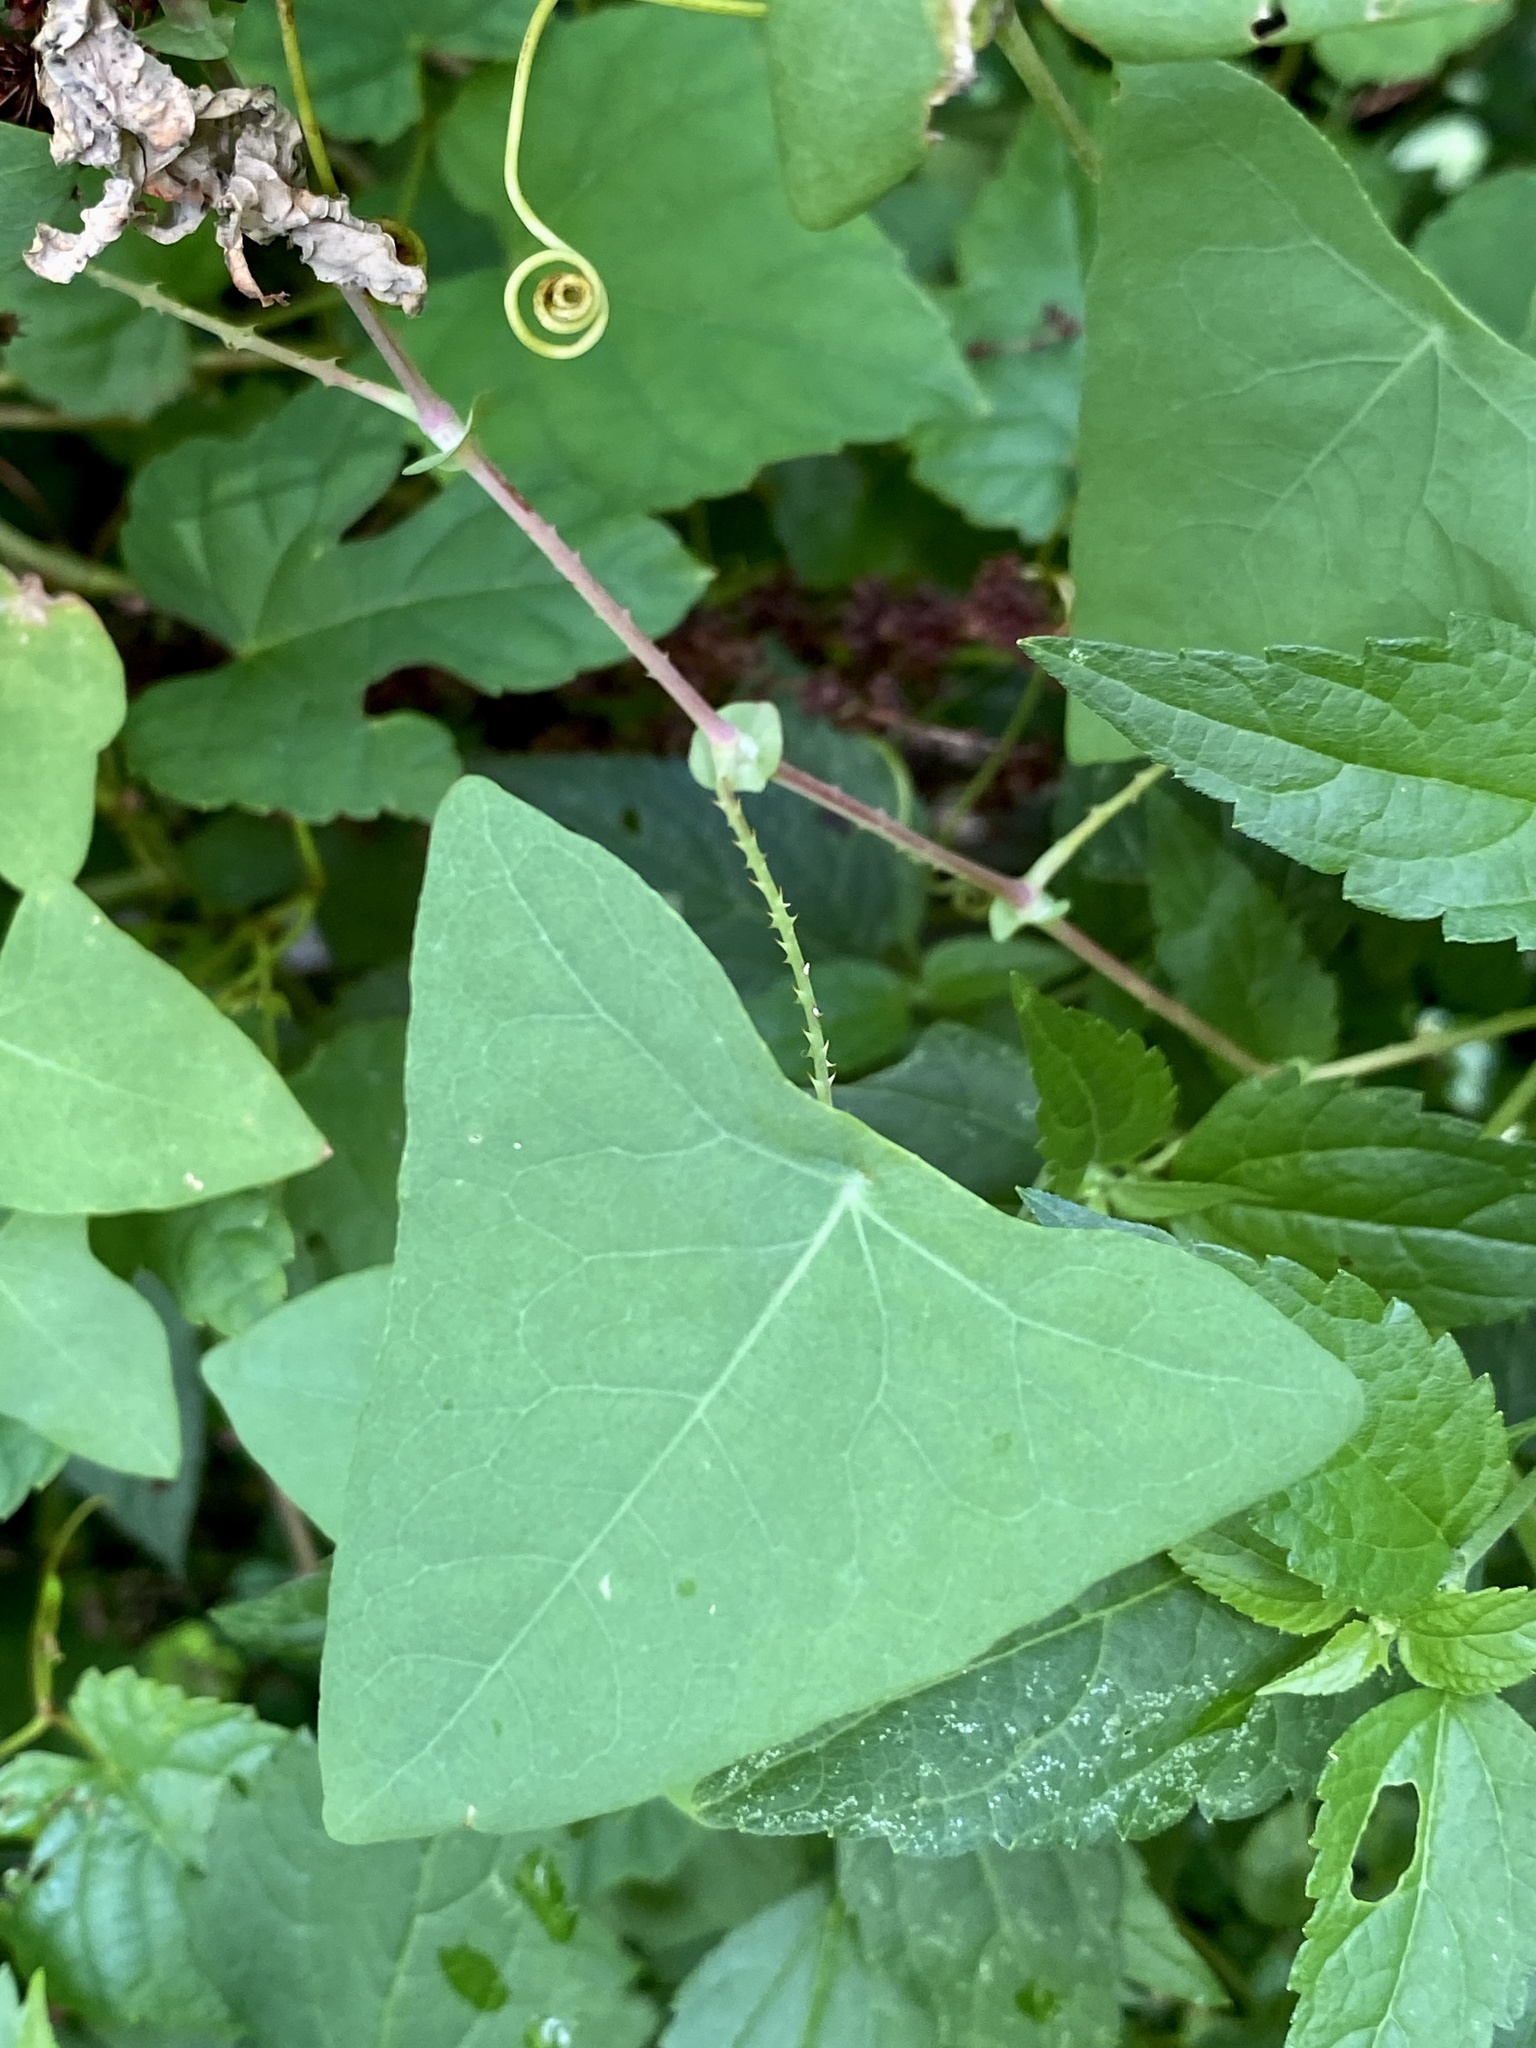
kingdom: Plantae
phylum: Tracheophyta
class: Magnoliopsida
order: Caryophyllales
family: Polygonaceae
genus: Persicaria
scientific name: Persicaria perfoliata
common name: Asiatic tearthumb
